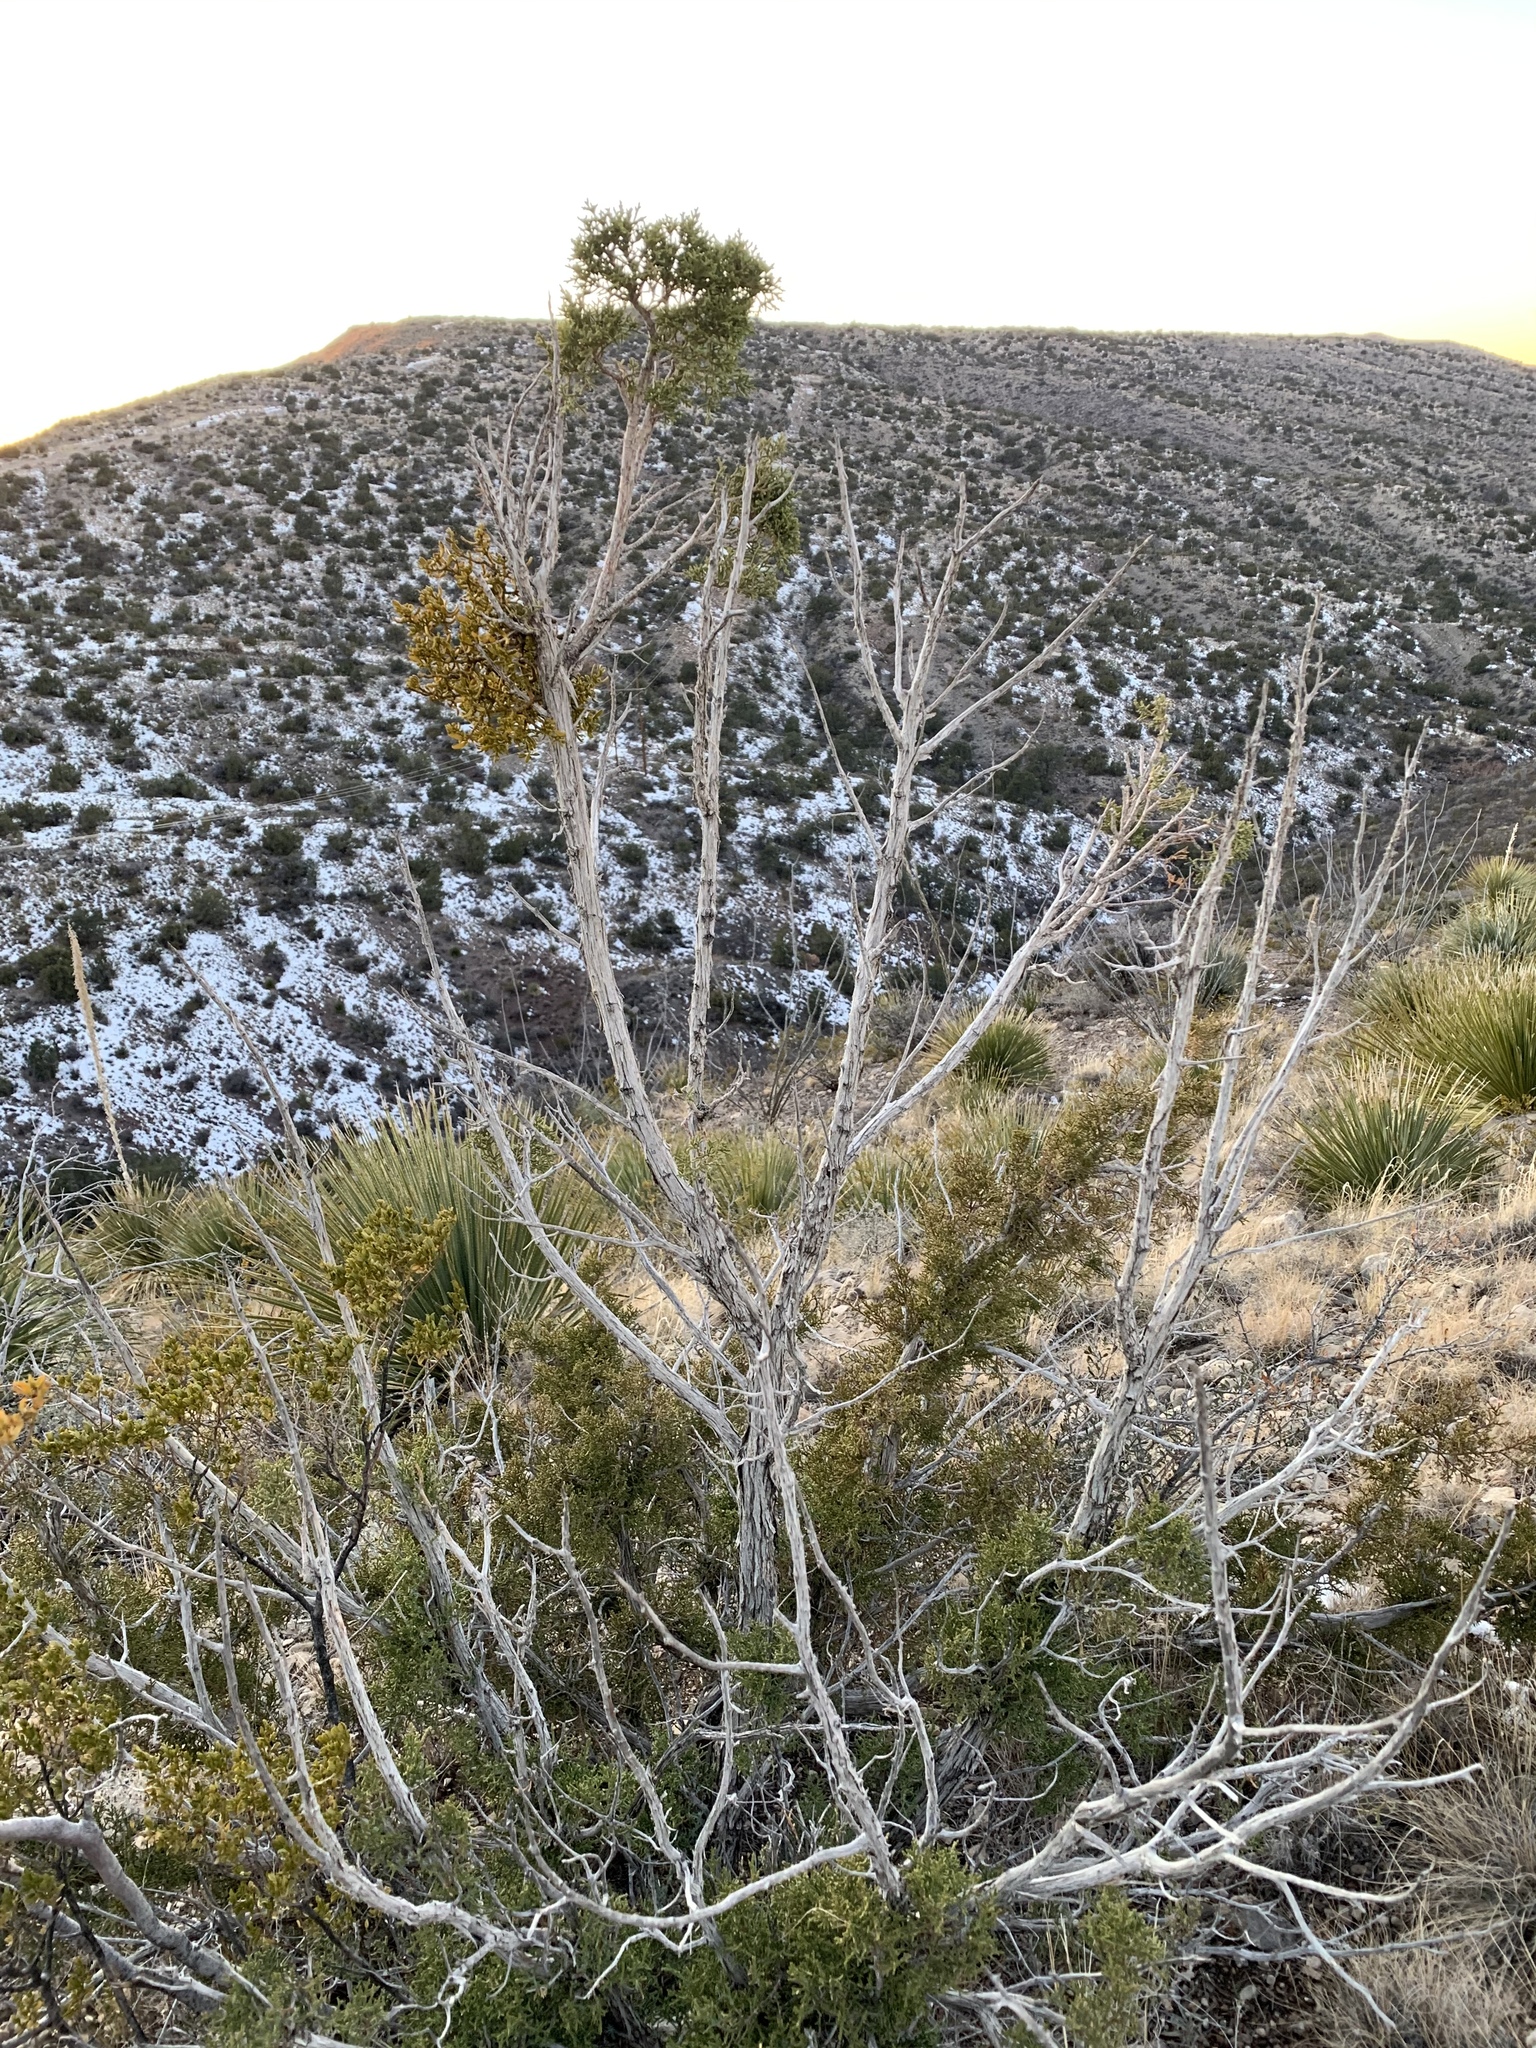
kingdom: Plantae
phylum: Tracheophyta
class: Pinopsida
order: Pinales
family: Cupressaceae
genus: Juniperus
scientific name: Juniperus monosperma
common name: One-seed juniper
